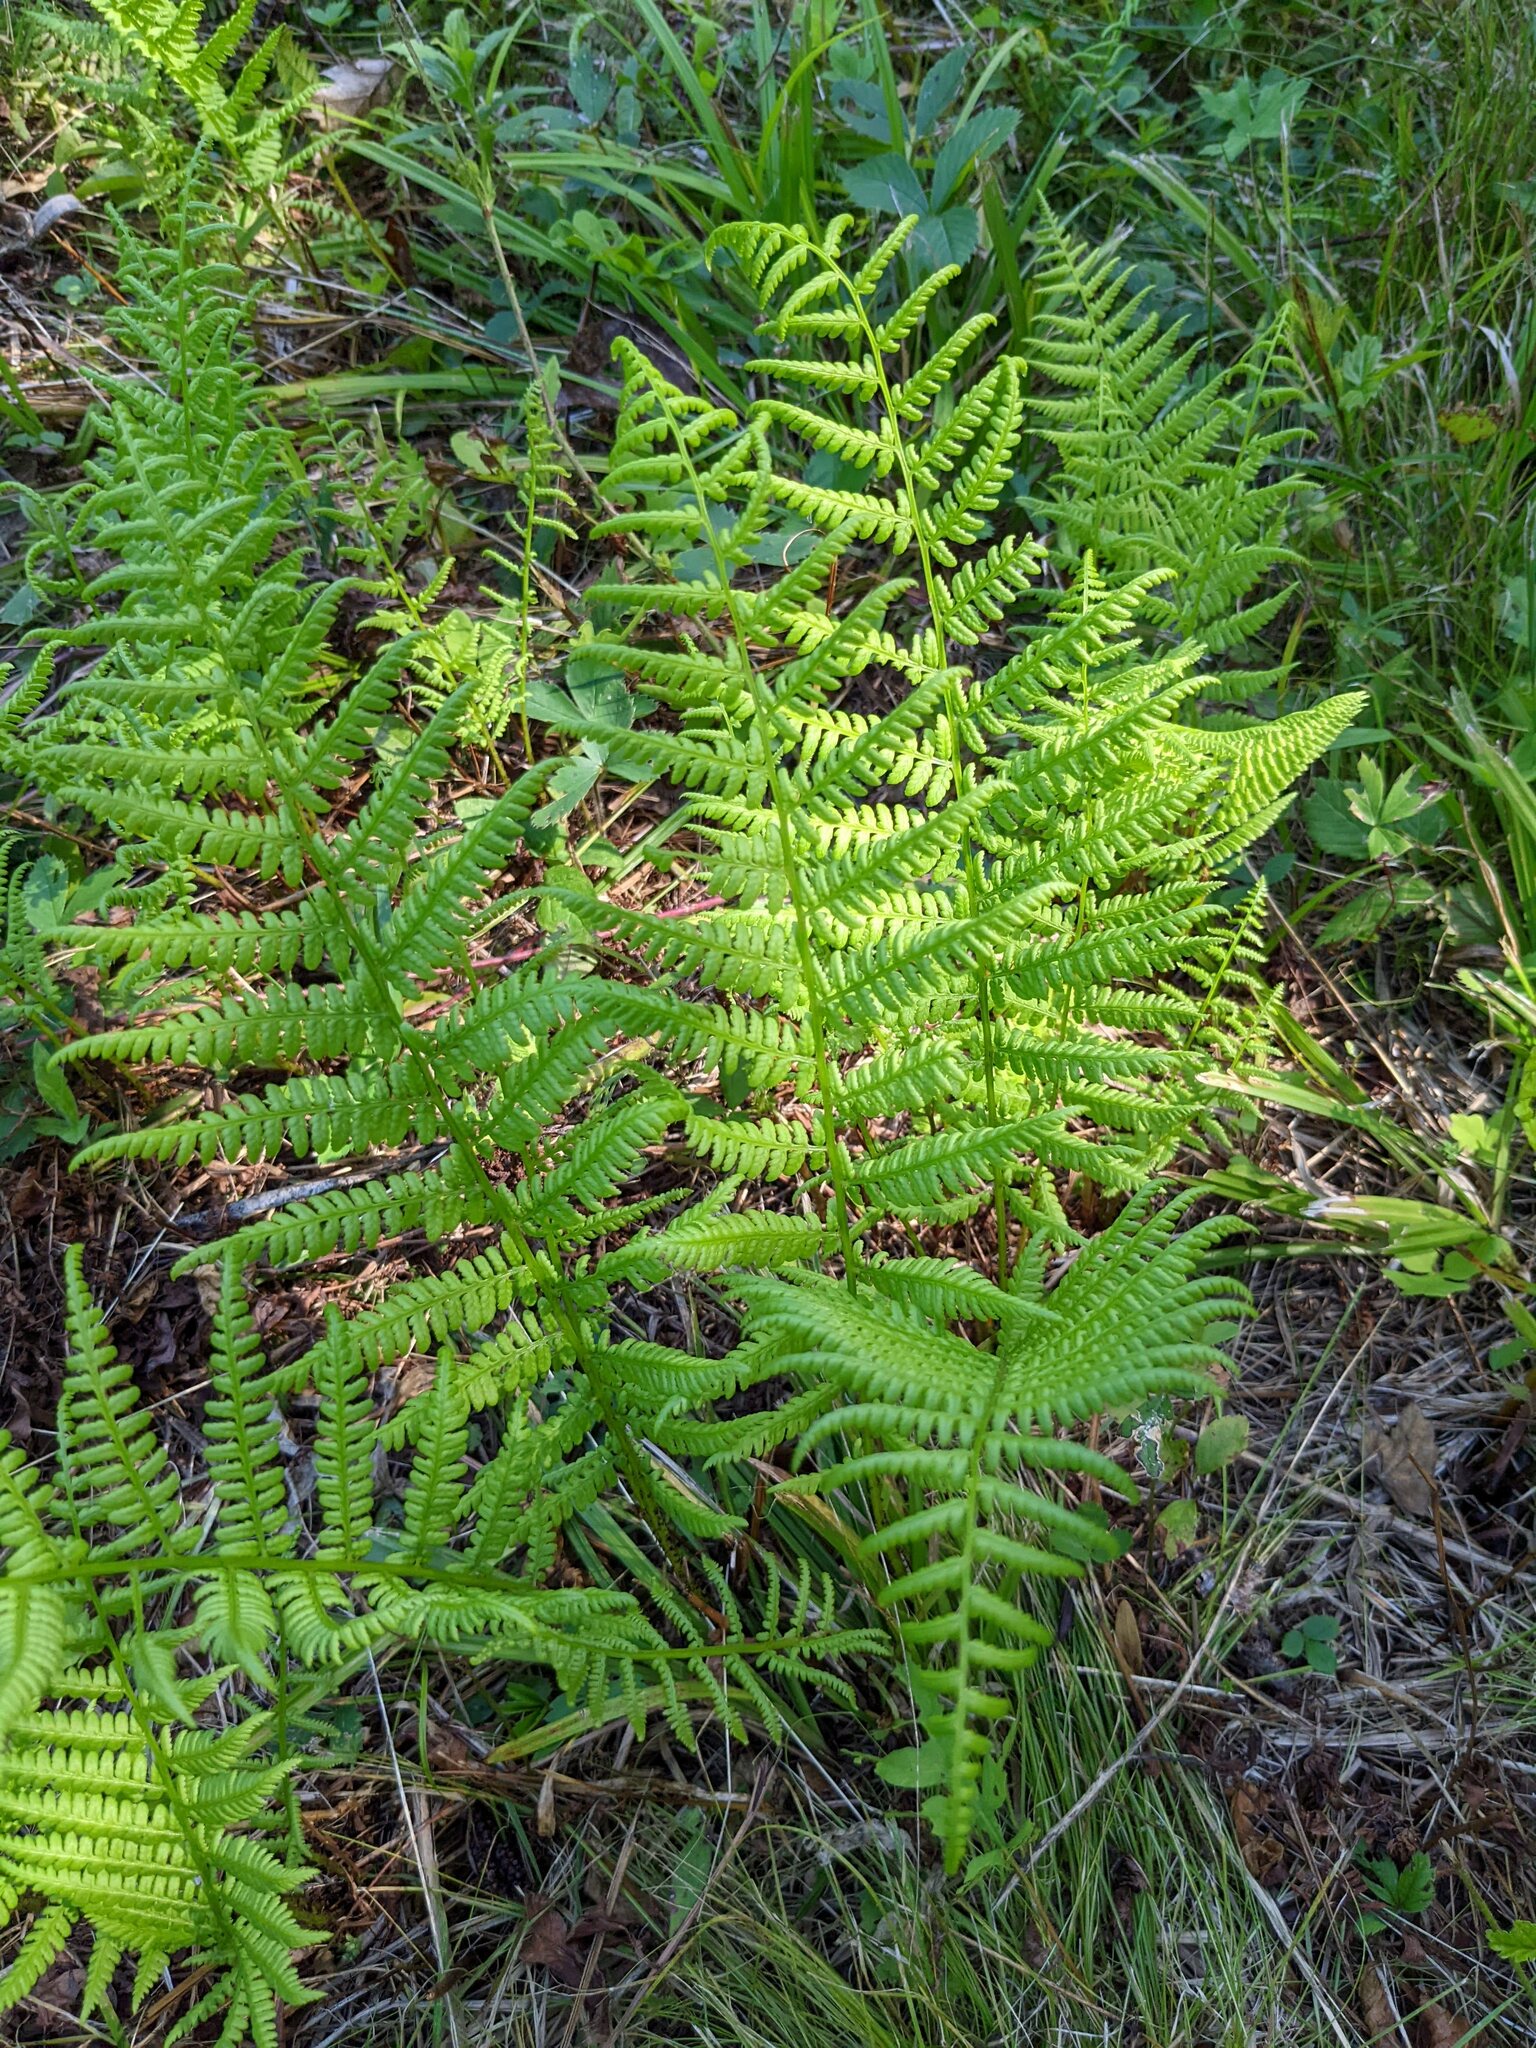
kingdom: Plantae
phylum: Tracheophyta
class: Polypodiopsida
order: Polypodiales
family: Athyriaceae
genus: Athyrium
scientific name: Athyrium angustum
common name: Northern lady fern
